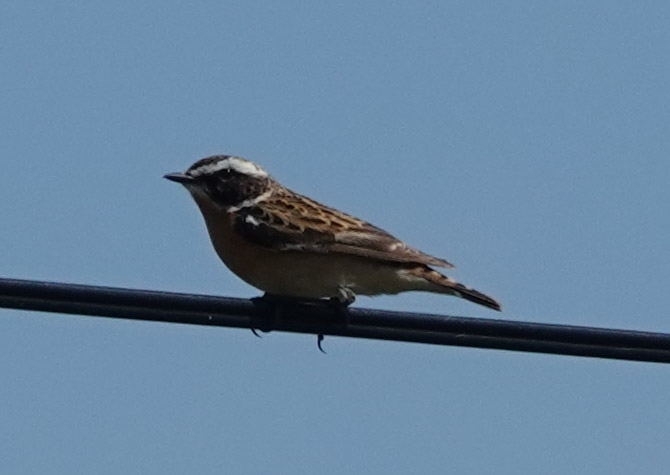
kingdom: Animalia
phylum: Chordata
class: Aves
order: Passeriformes
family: Muscicapidae
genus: Saxicola
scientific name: Saxicola rubetra
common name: Whinchat
